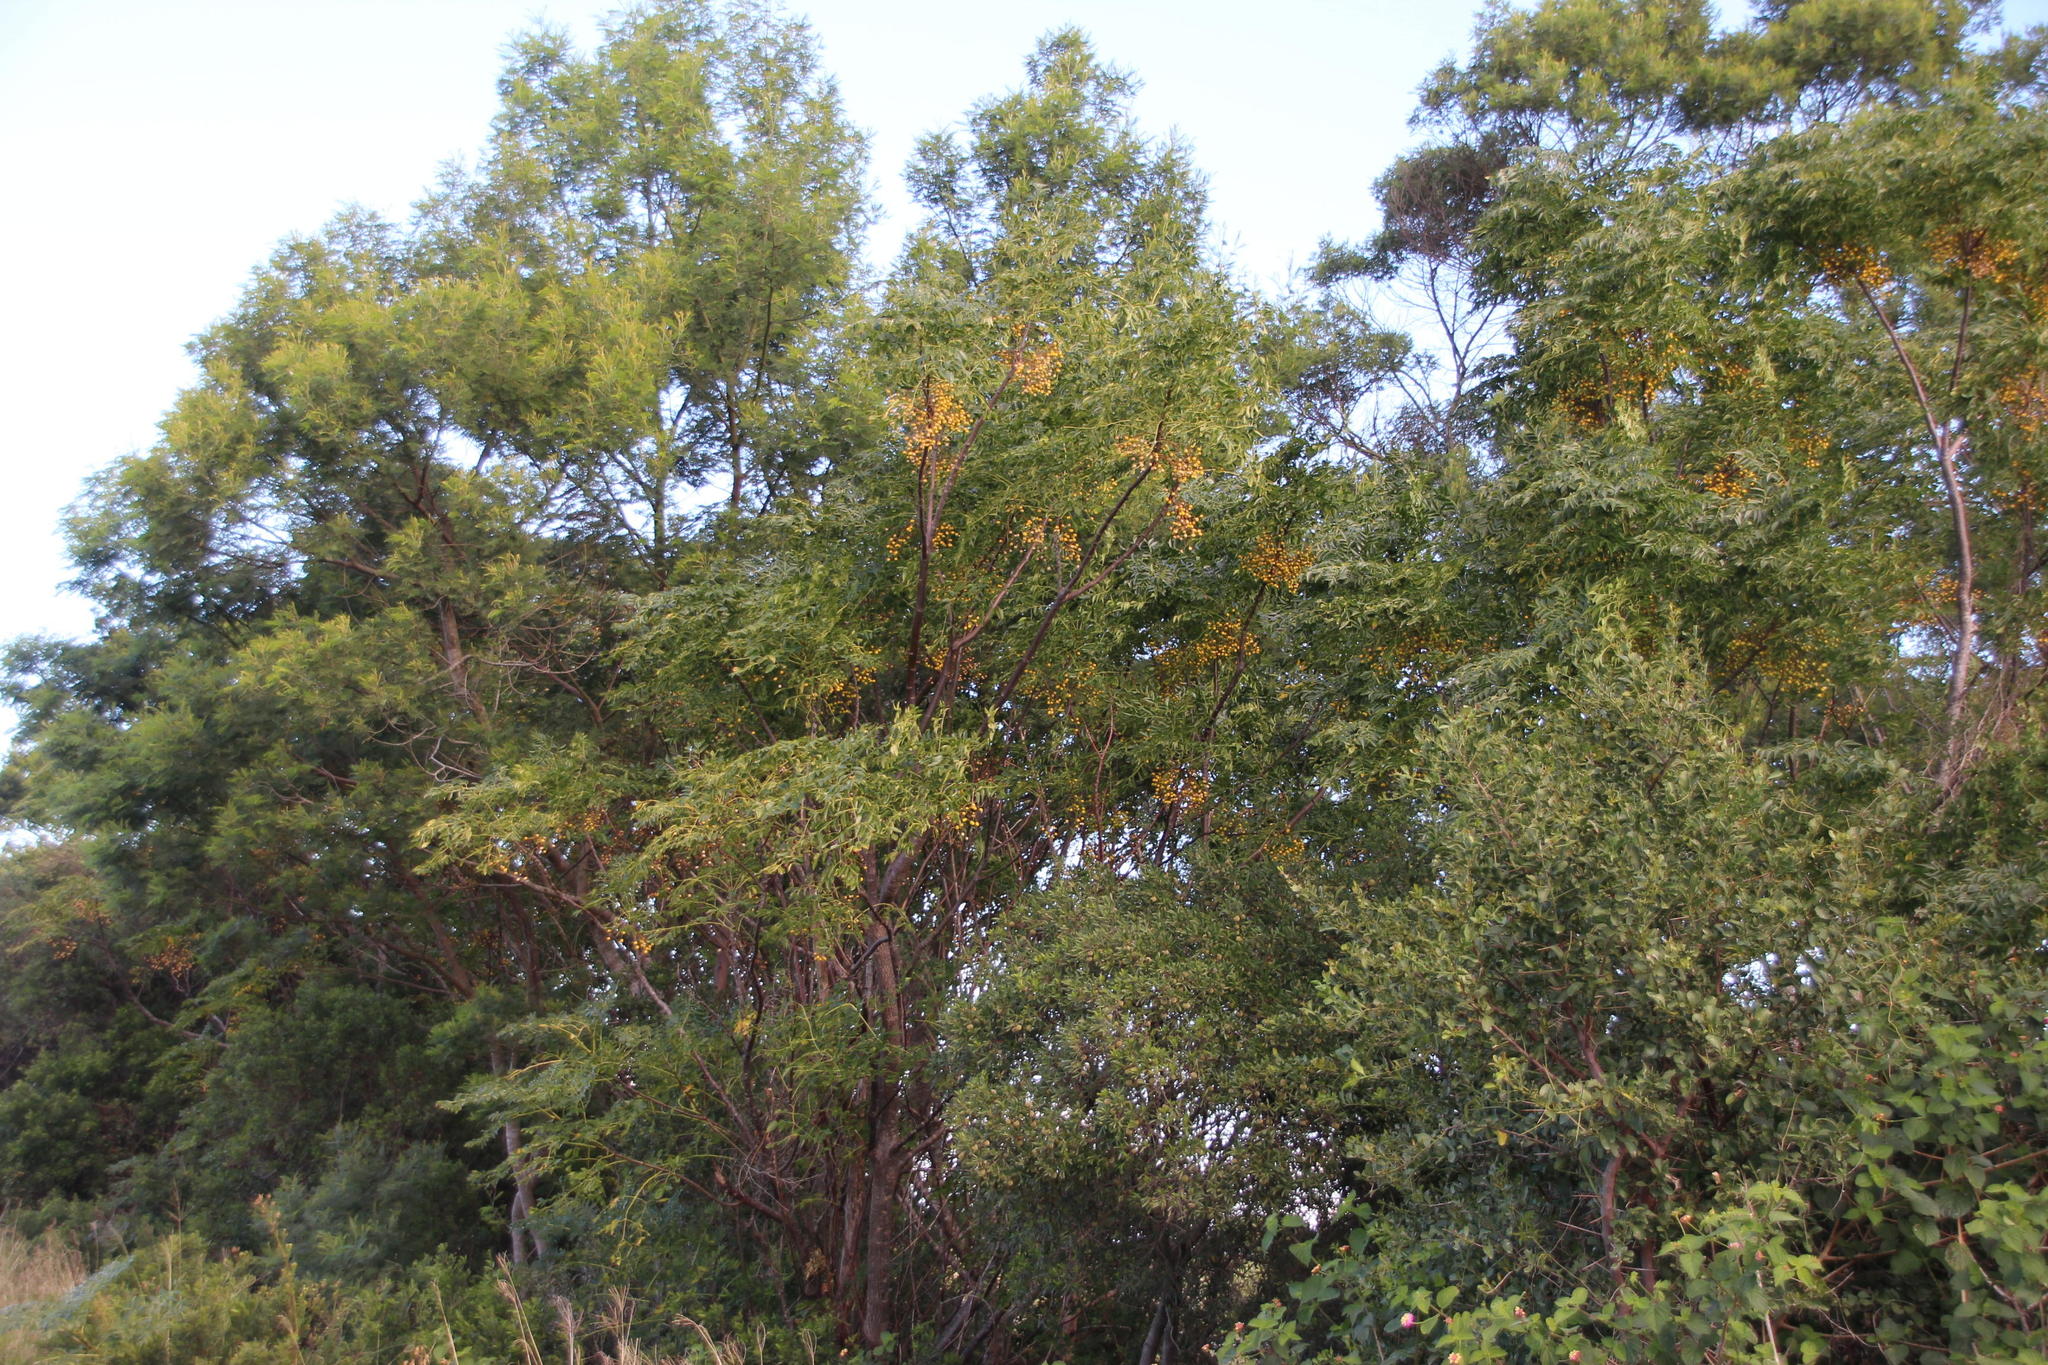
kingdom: Plantae
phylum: Tracheophyta
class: Magnoliopsida
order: Sapindales
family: Meliaceae
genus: Melia
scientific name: Melia azedarach
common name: Chinaberrytree
